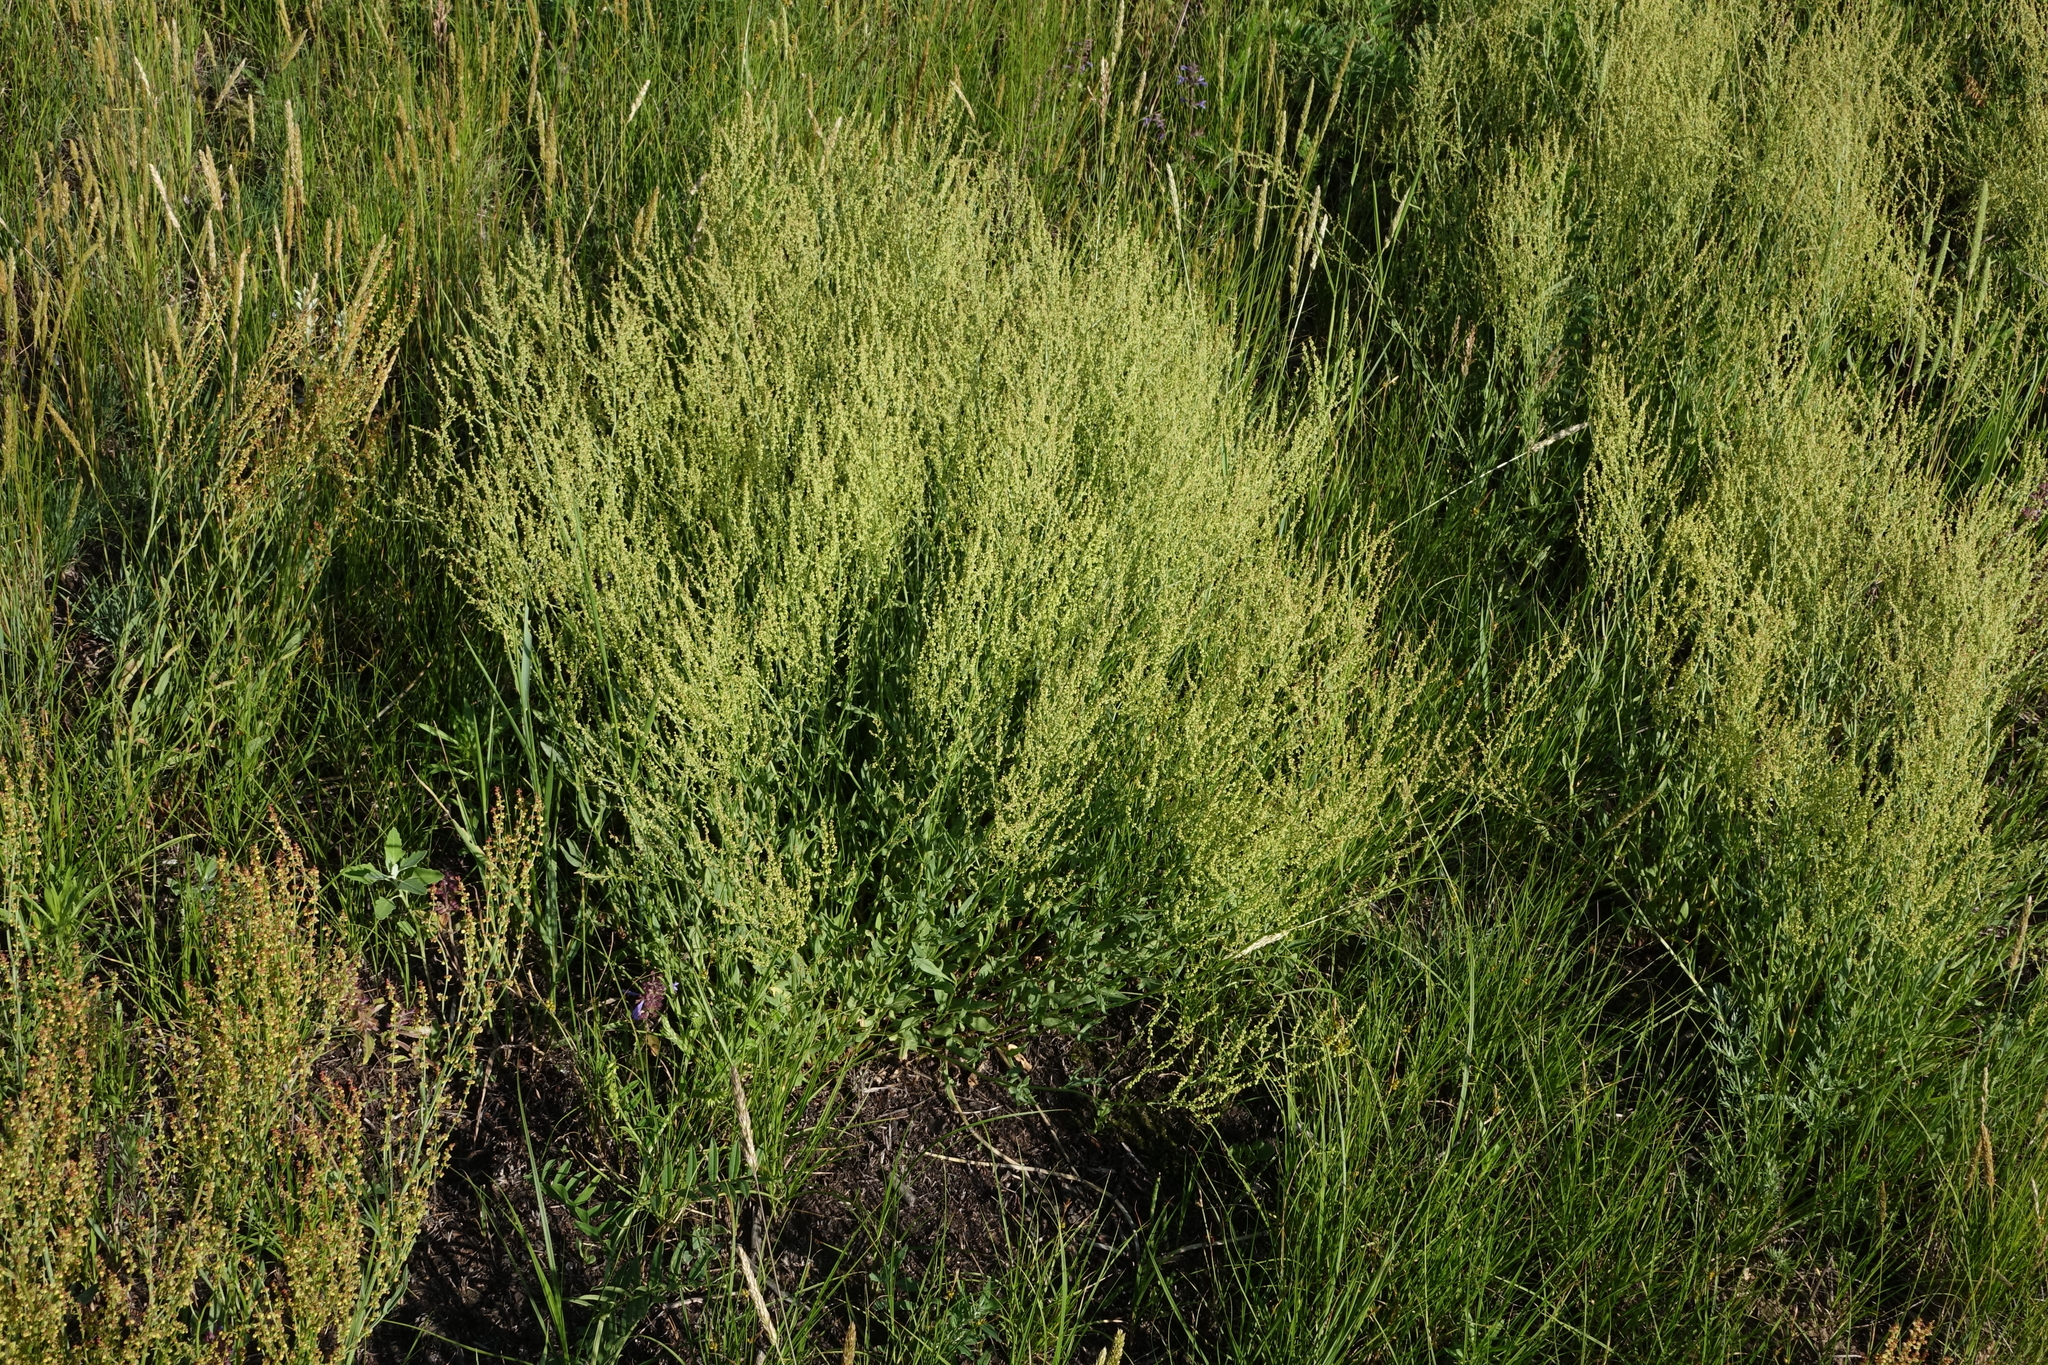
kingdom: Plantae
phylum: Tracheophyta
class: Magnoliopsida
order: Caryophyllales
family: Polygonaceae
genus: Rumex
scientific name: Rumex acetosella
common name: Common sheep sorrel
